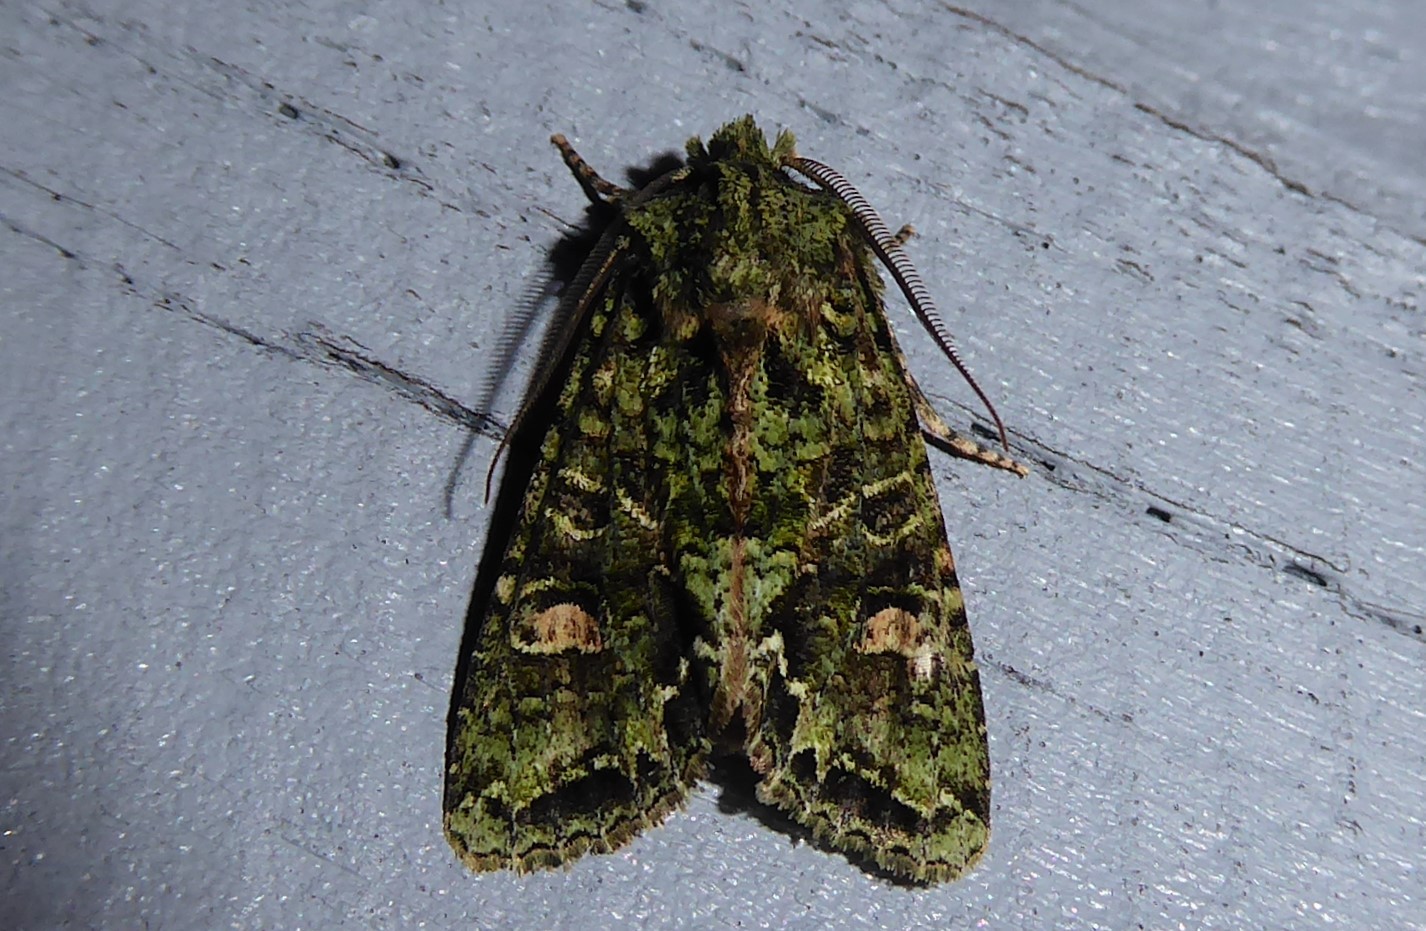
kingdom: Animalia
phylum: Arthropoda
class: Insecta
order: Lepidoptera
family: Noctuidae
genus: Ichneutica
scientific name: Ichneutica
